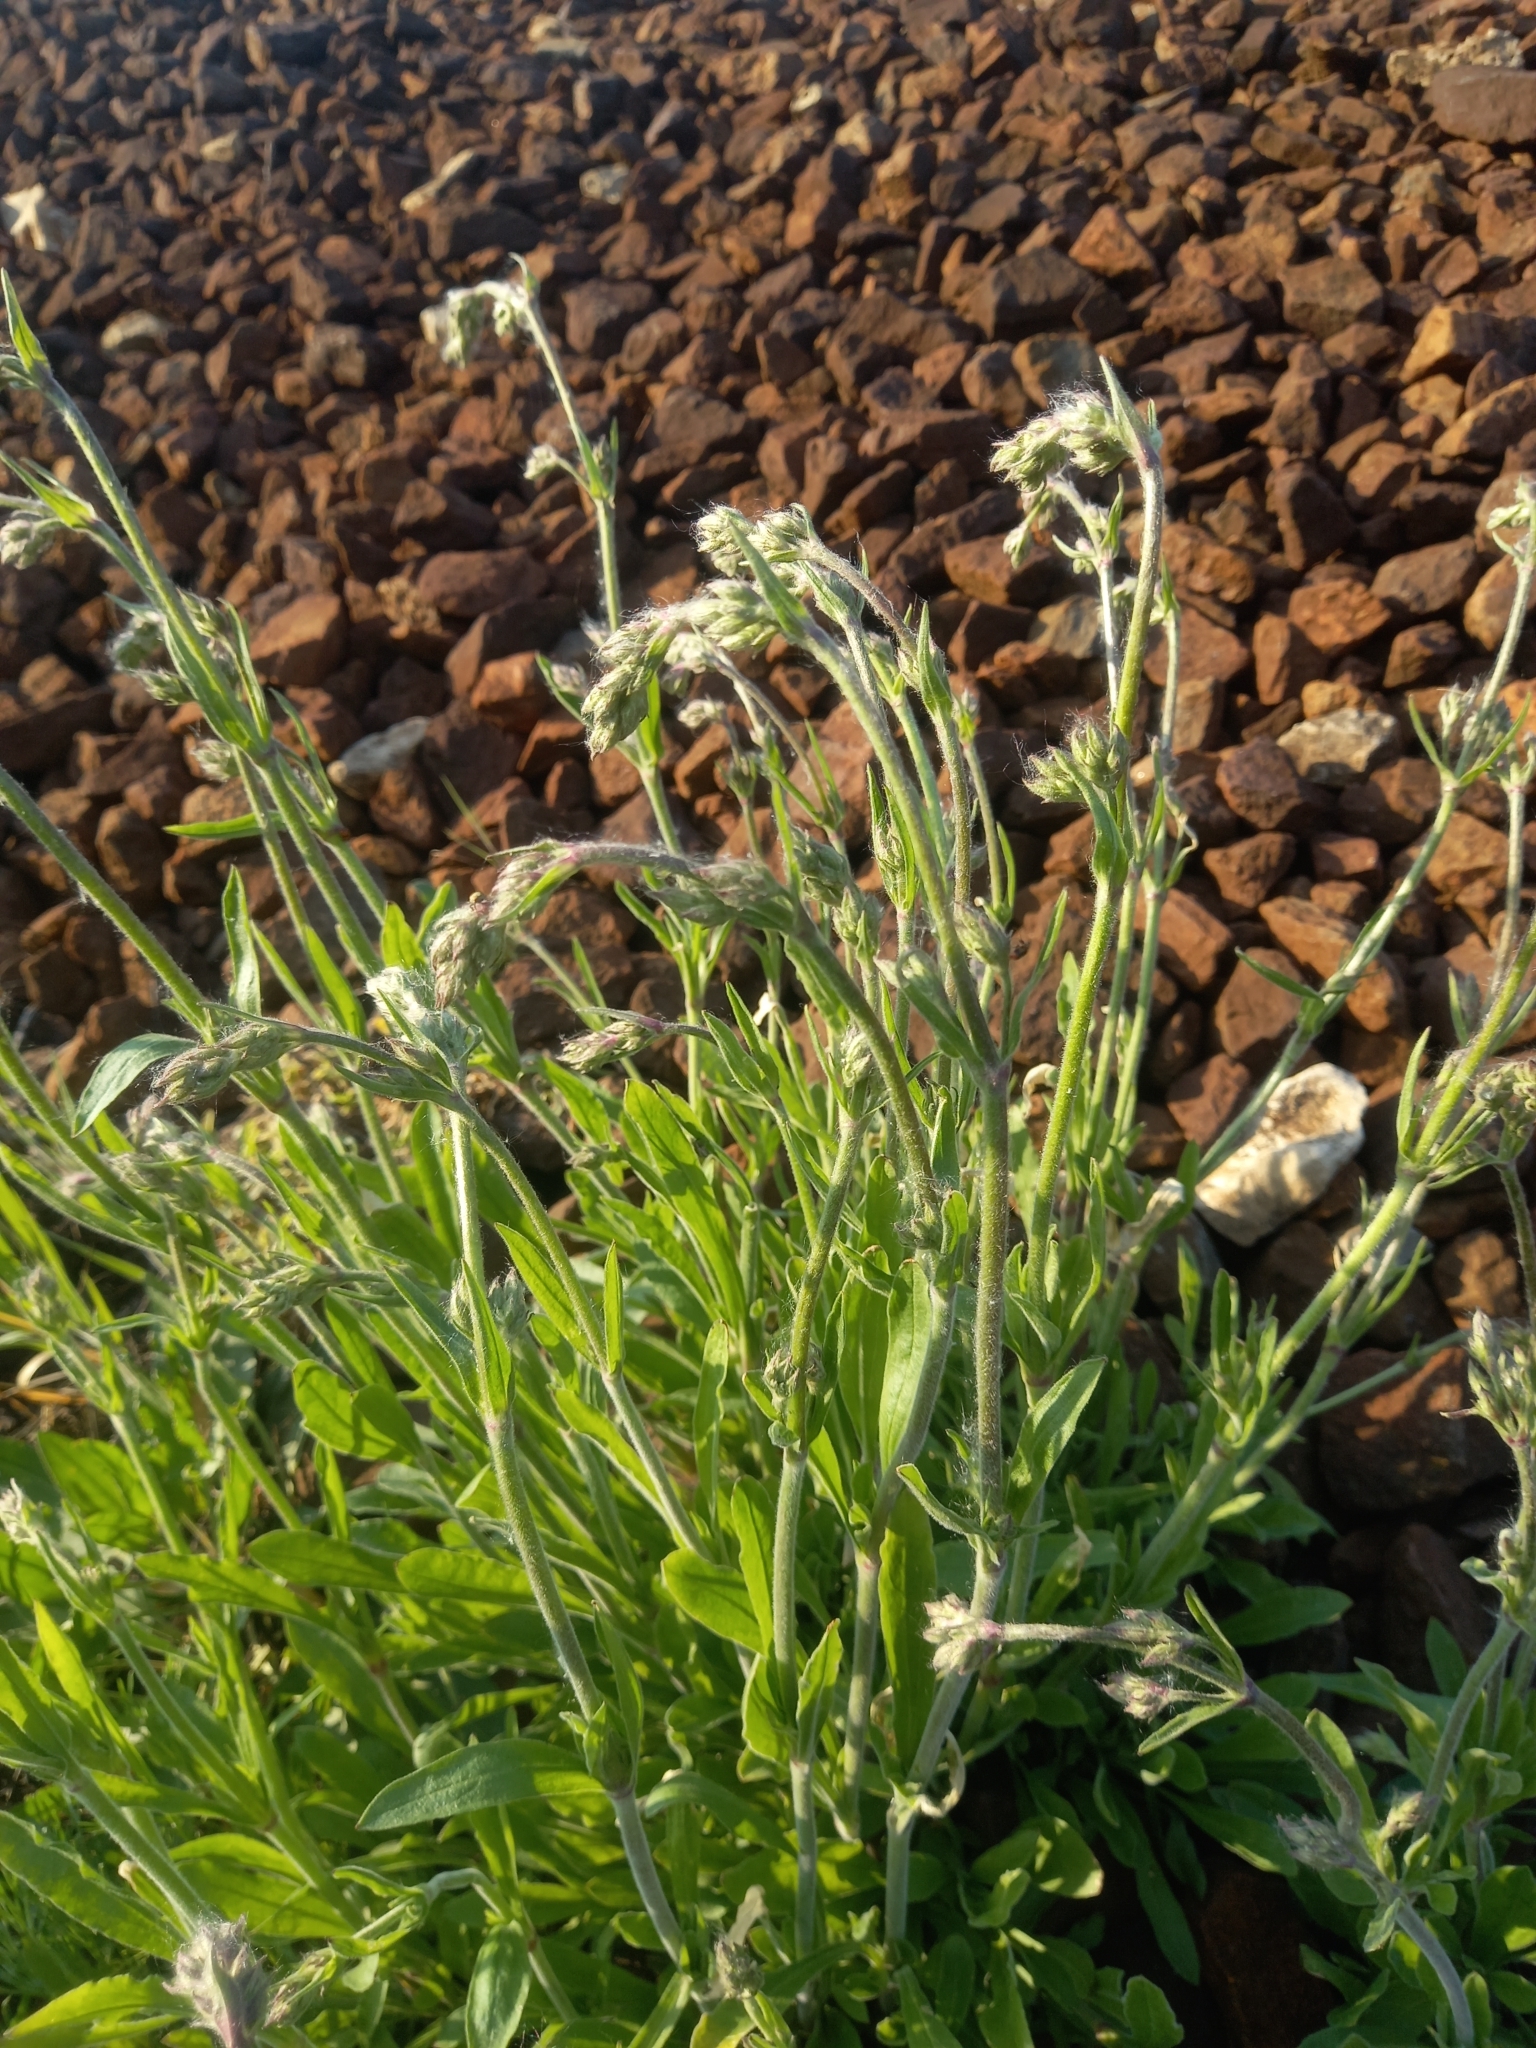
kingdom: Plantae
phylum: Tracheophyta
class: Magnoliopsida
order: Caryophyllales
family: Caryophyllaceae
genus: Silene
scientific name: Silene nutans
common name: Nottingham catchfly
